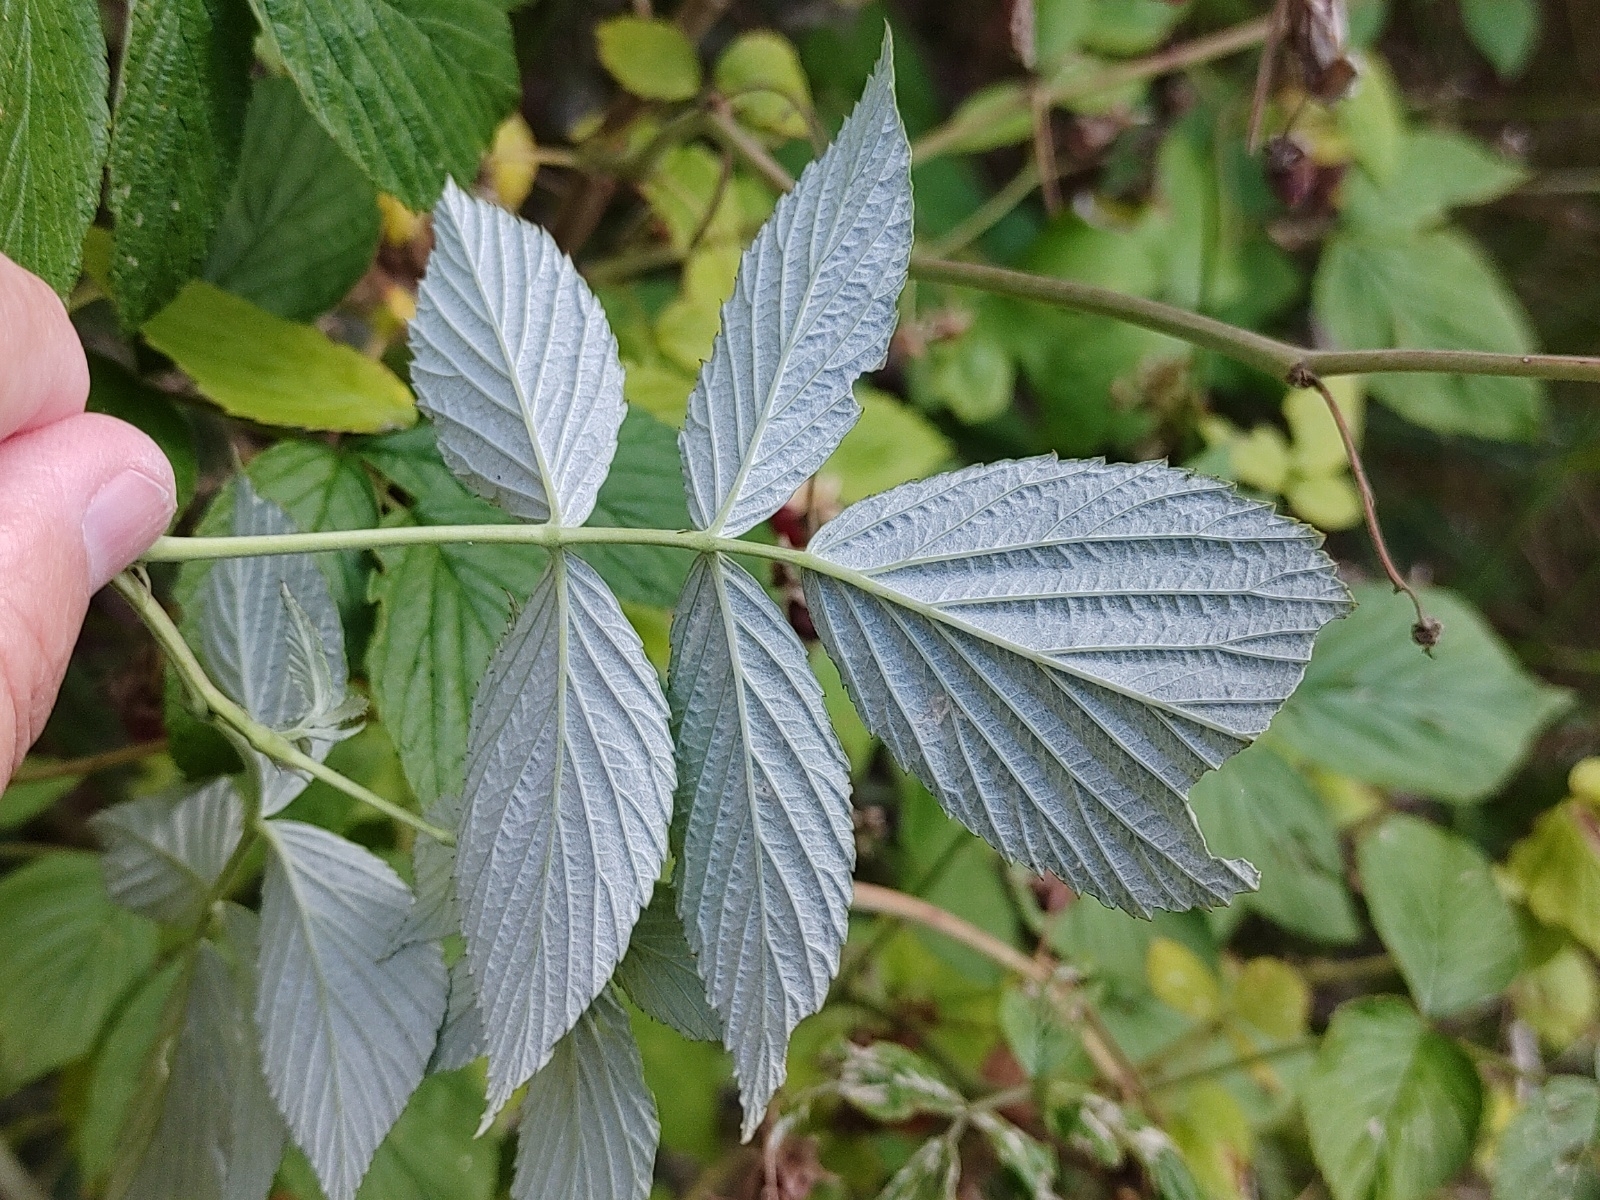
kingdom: Plantae
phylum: Tracheophyta
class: Magnoliopsida
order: Rosales
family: Rosaceae
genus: Rubus
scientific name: Rubus idaeus
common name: Raspberry
